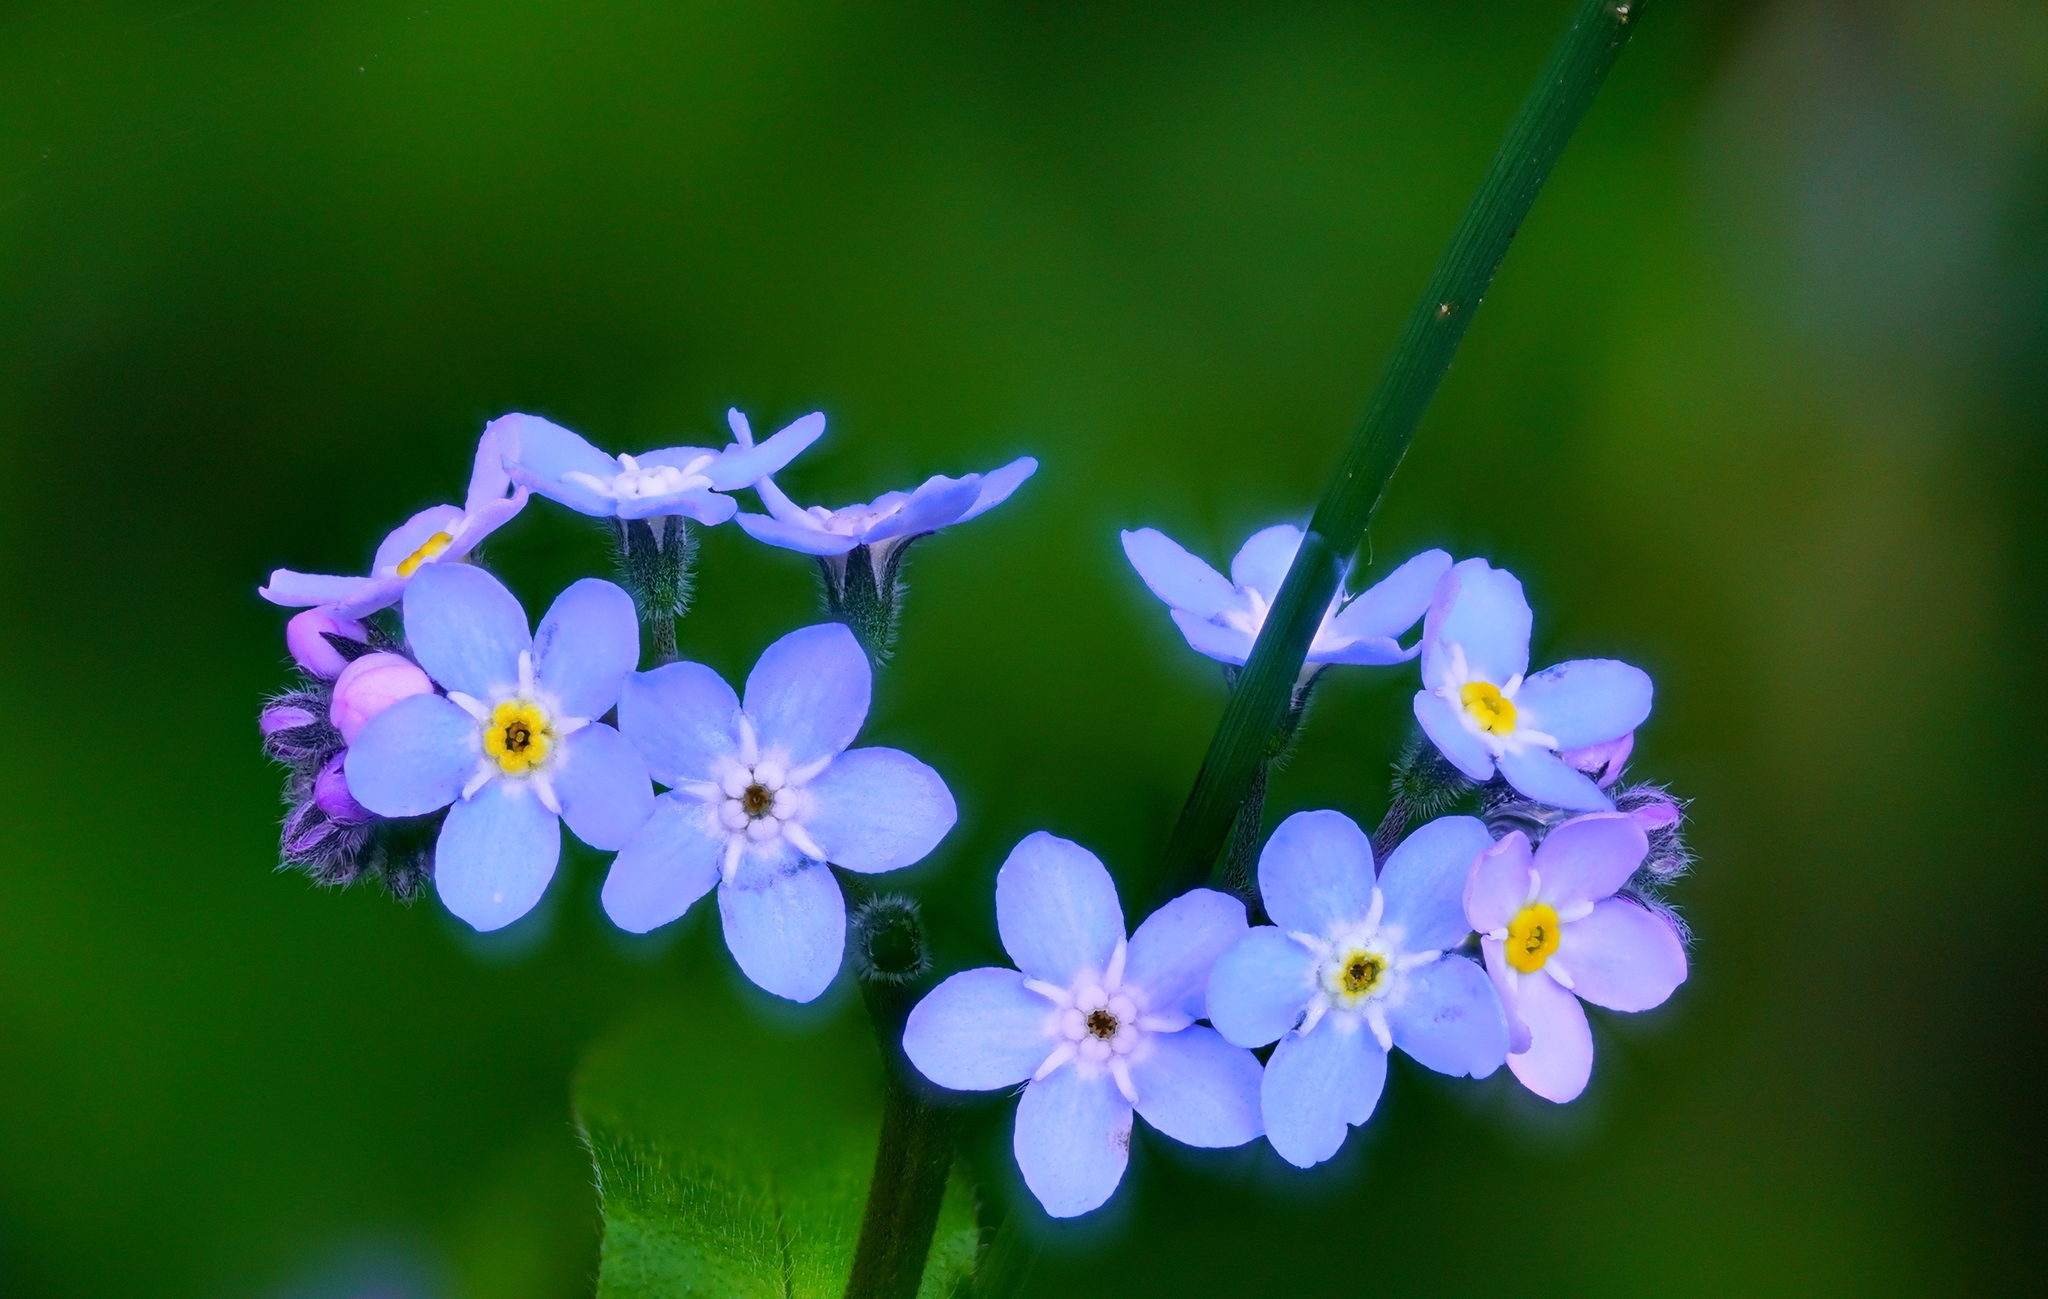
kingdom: Plantae
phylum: Tracheophyta
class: Magnoliopsida
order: Boraginales
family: Boraginaceae
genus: Myosotis
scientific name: Myosotis latifolia
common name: Broadleaf forget-me-not
